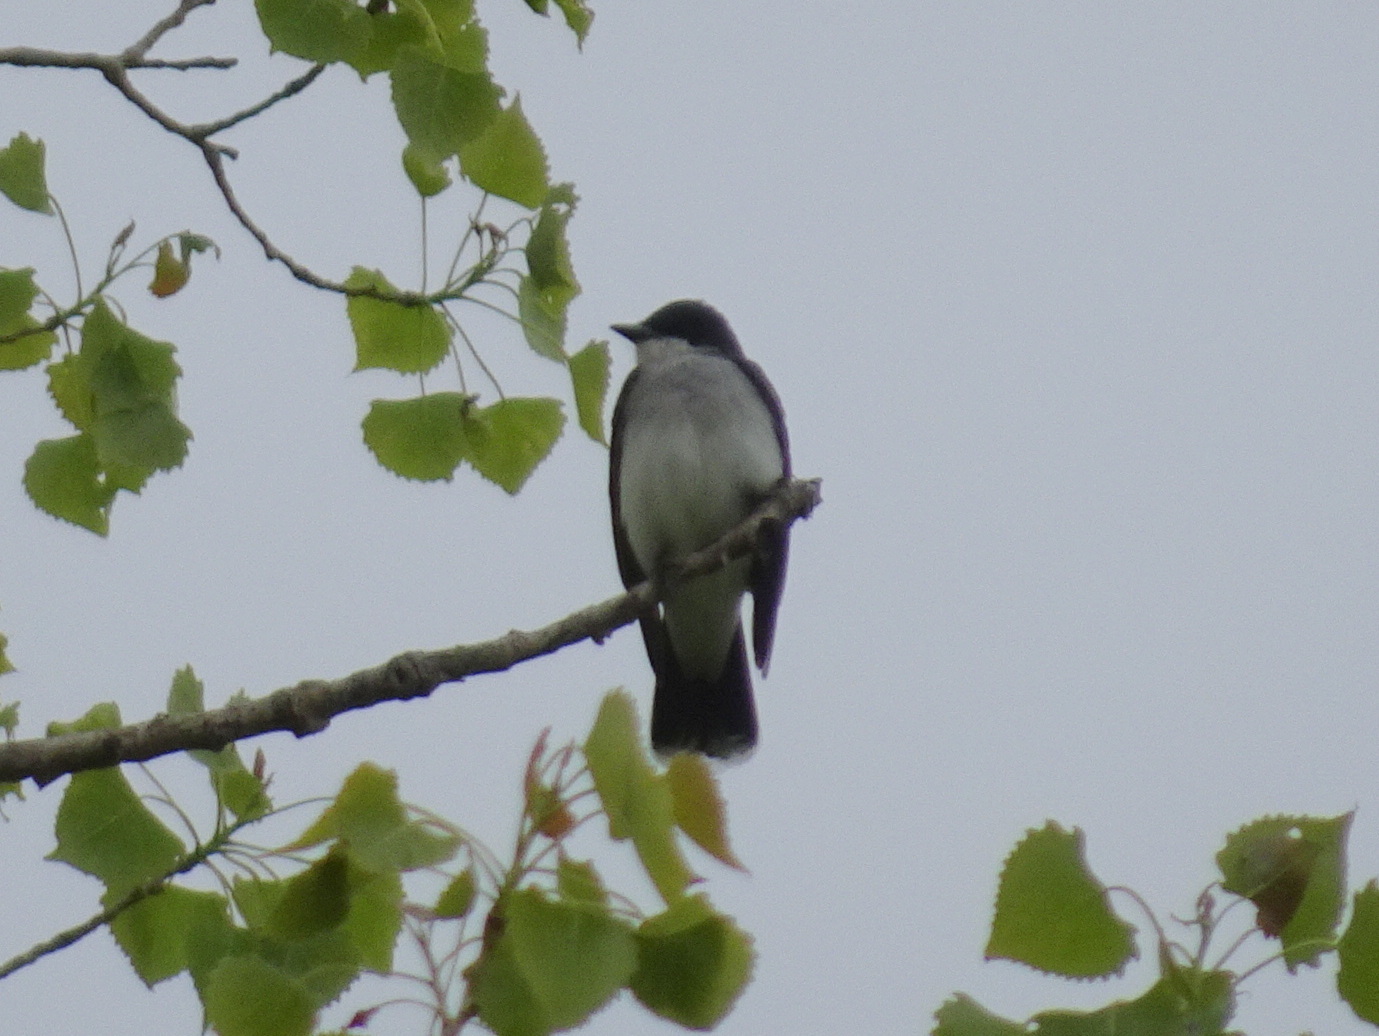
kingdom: Animalia
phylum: Chordata
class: Aves
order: Passeriformes
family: Tyrannidae
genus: Tyrannus
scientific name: Tyrannus tyrannus
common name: Eastern kingbird
